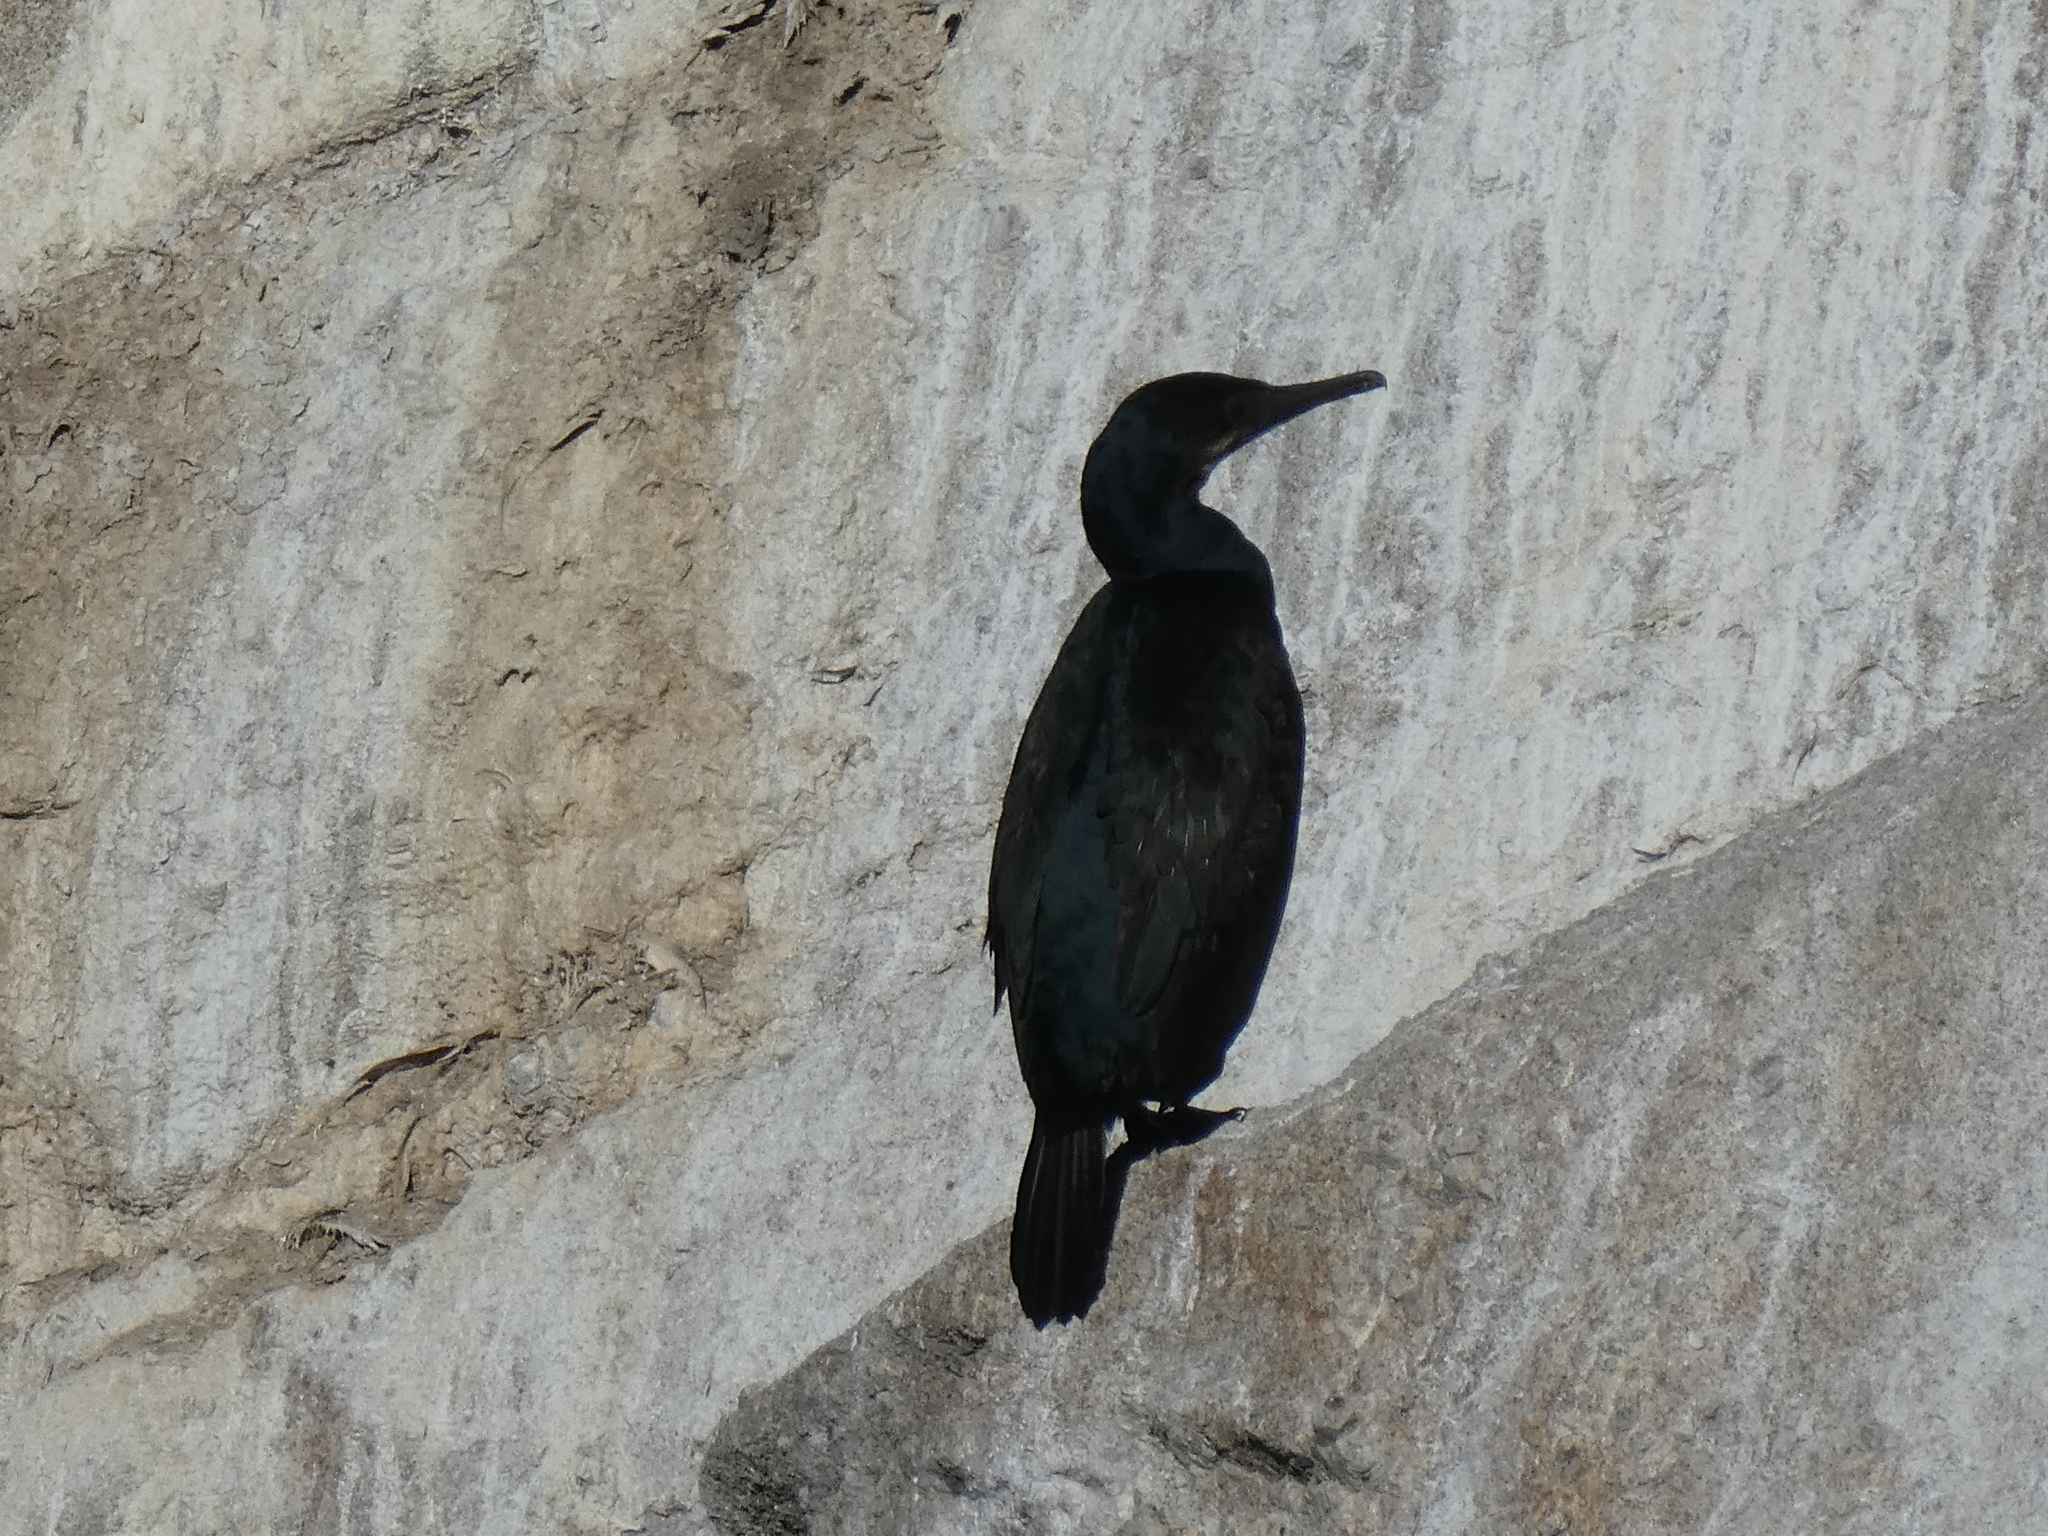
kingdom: Animalia
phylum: Chordata
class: Aves
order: Suliformes
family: Phalacrocoracidae
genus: Urile
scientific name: Urile penicillatus
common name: Brandt's cormorant
